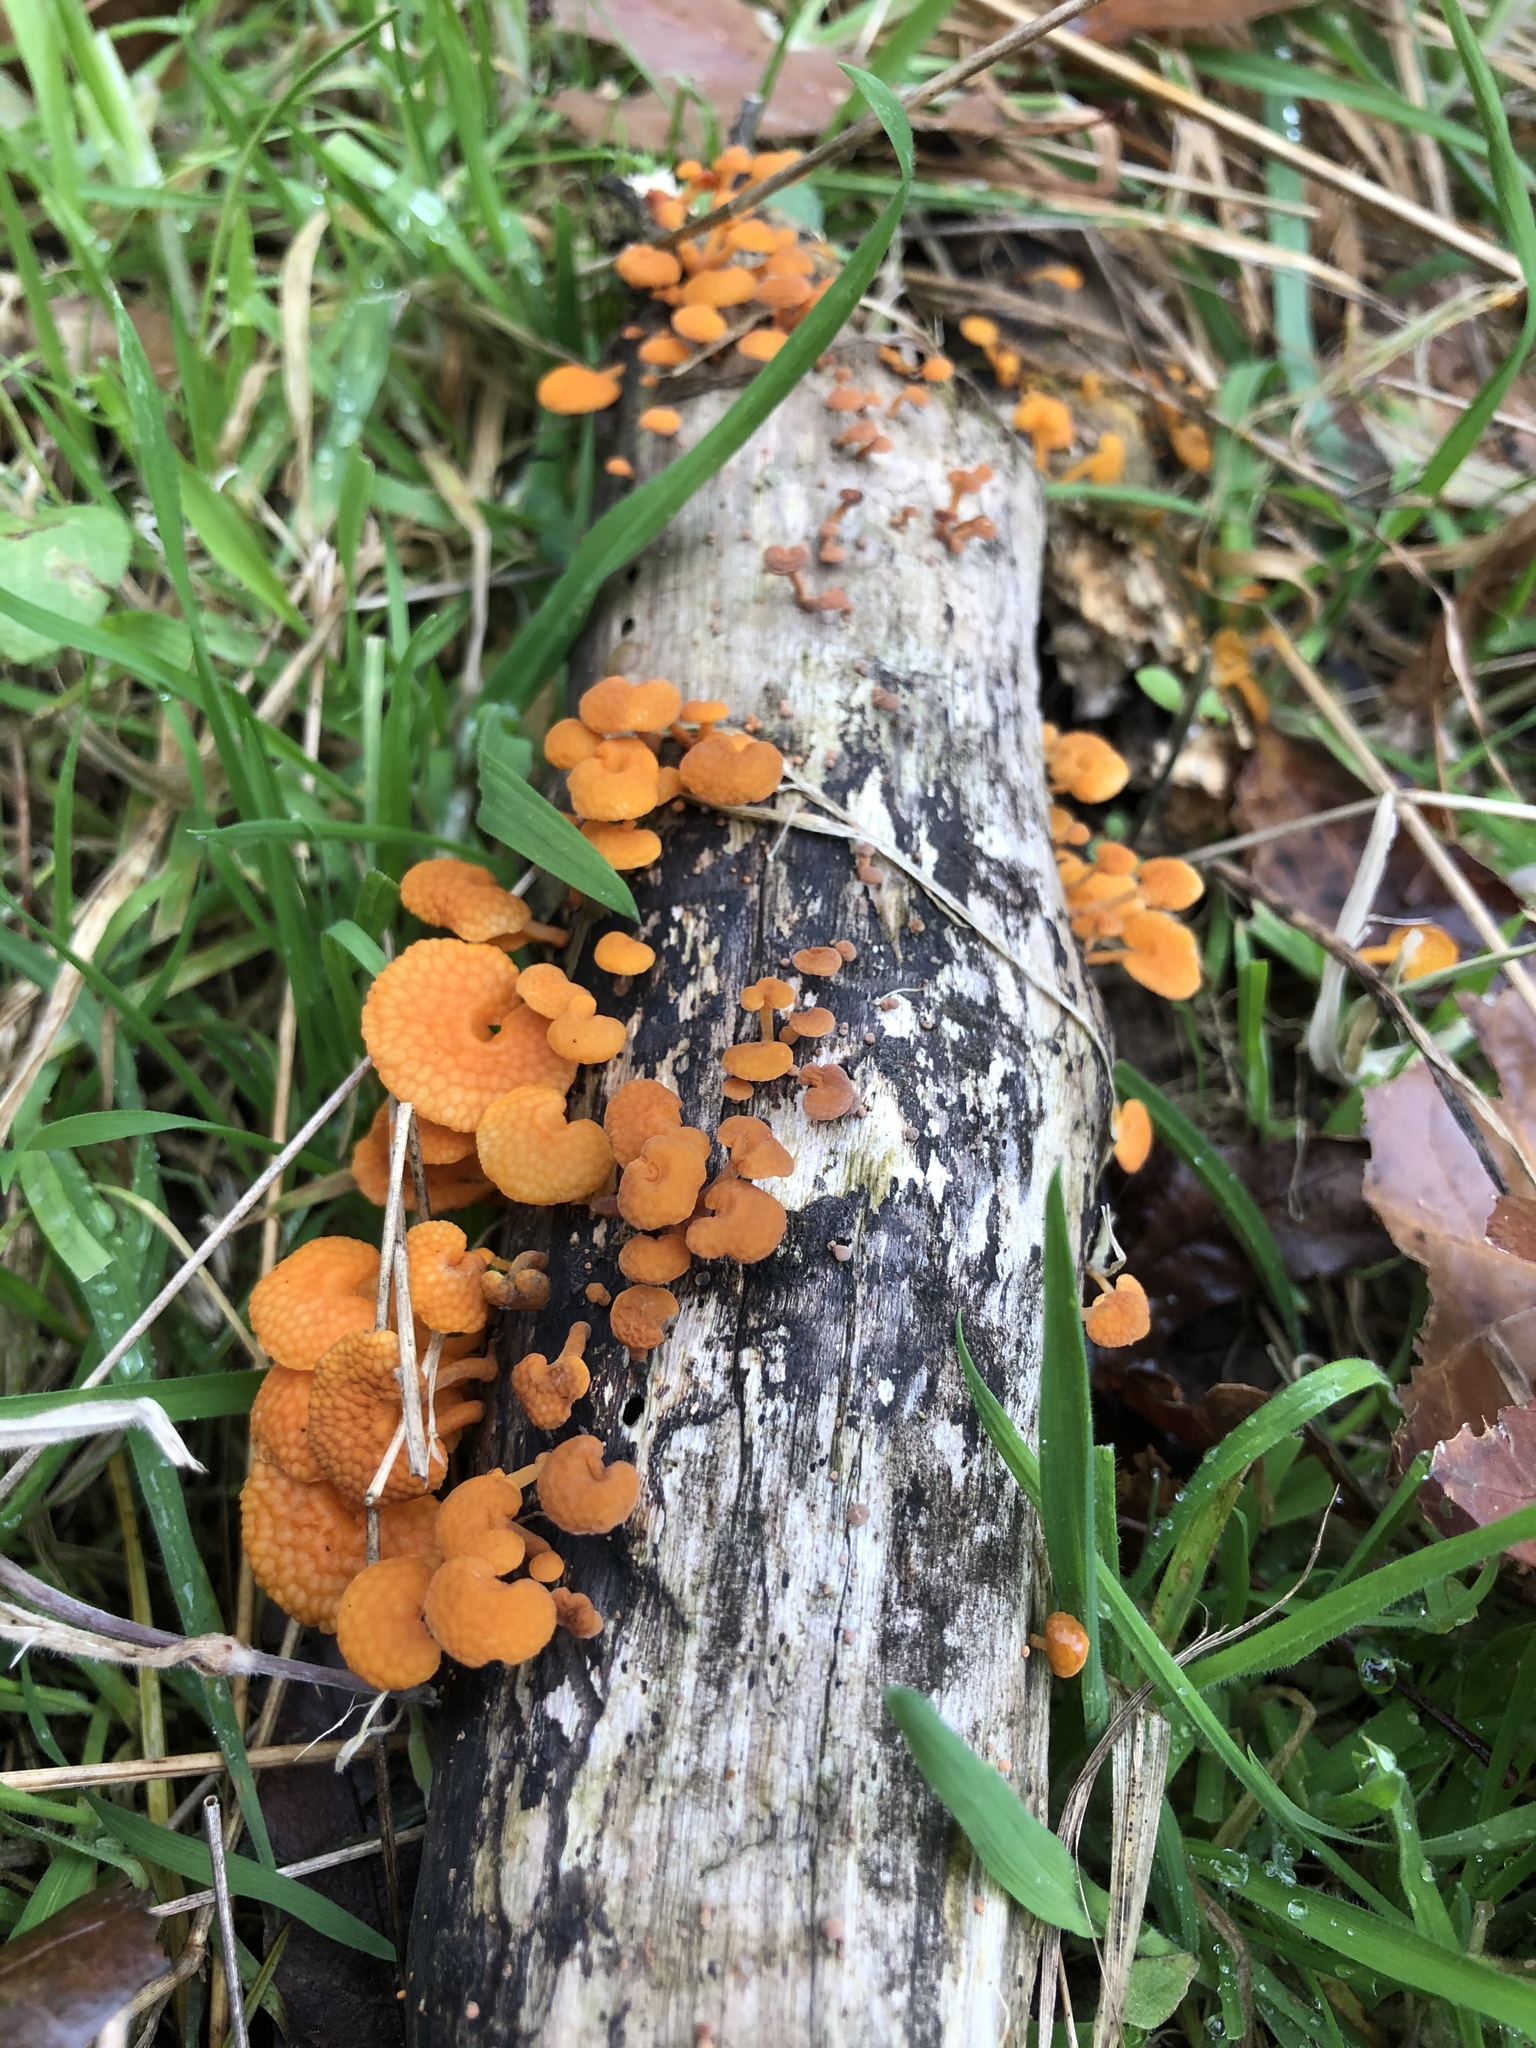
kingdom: Fungi
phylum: Basidiomycota
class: Agaricomycetes
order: Agaricales
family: Mycenaceae
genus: Favolaschia
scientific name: Favolaschia claudopus
